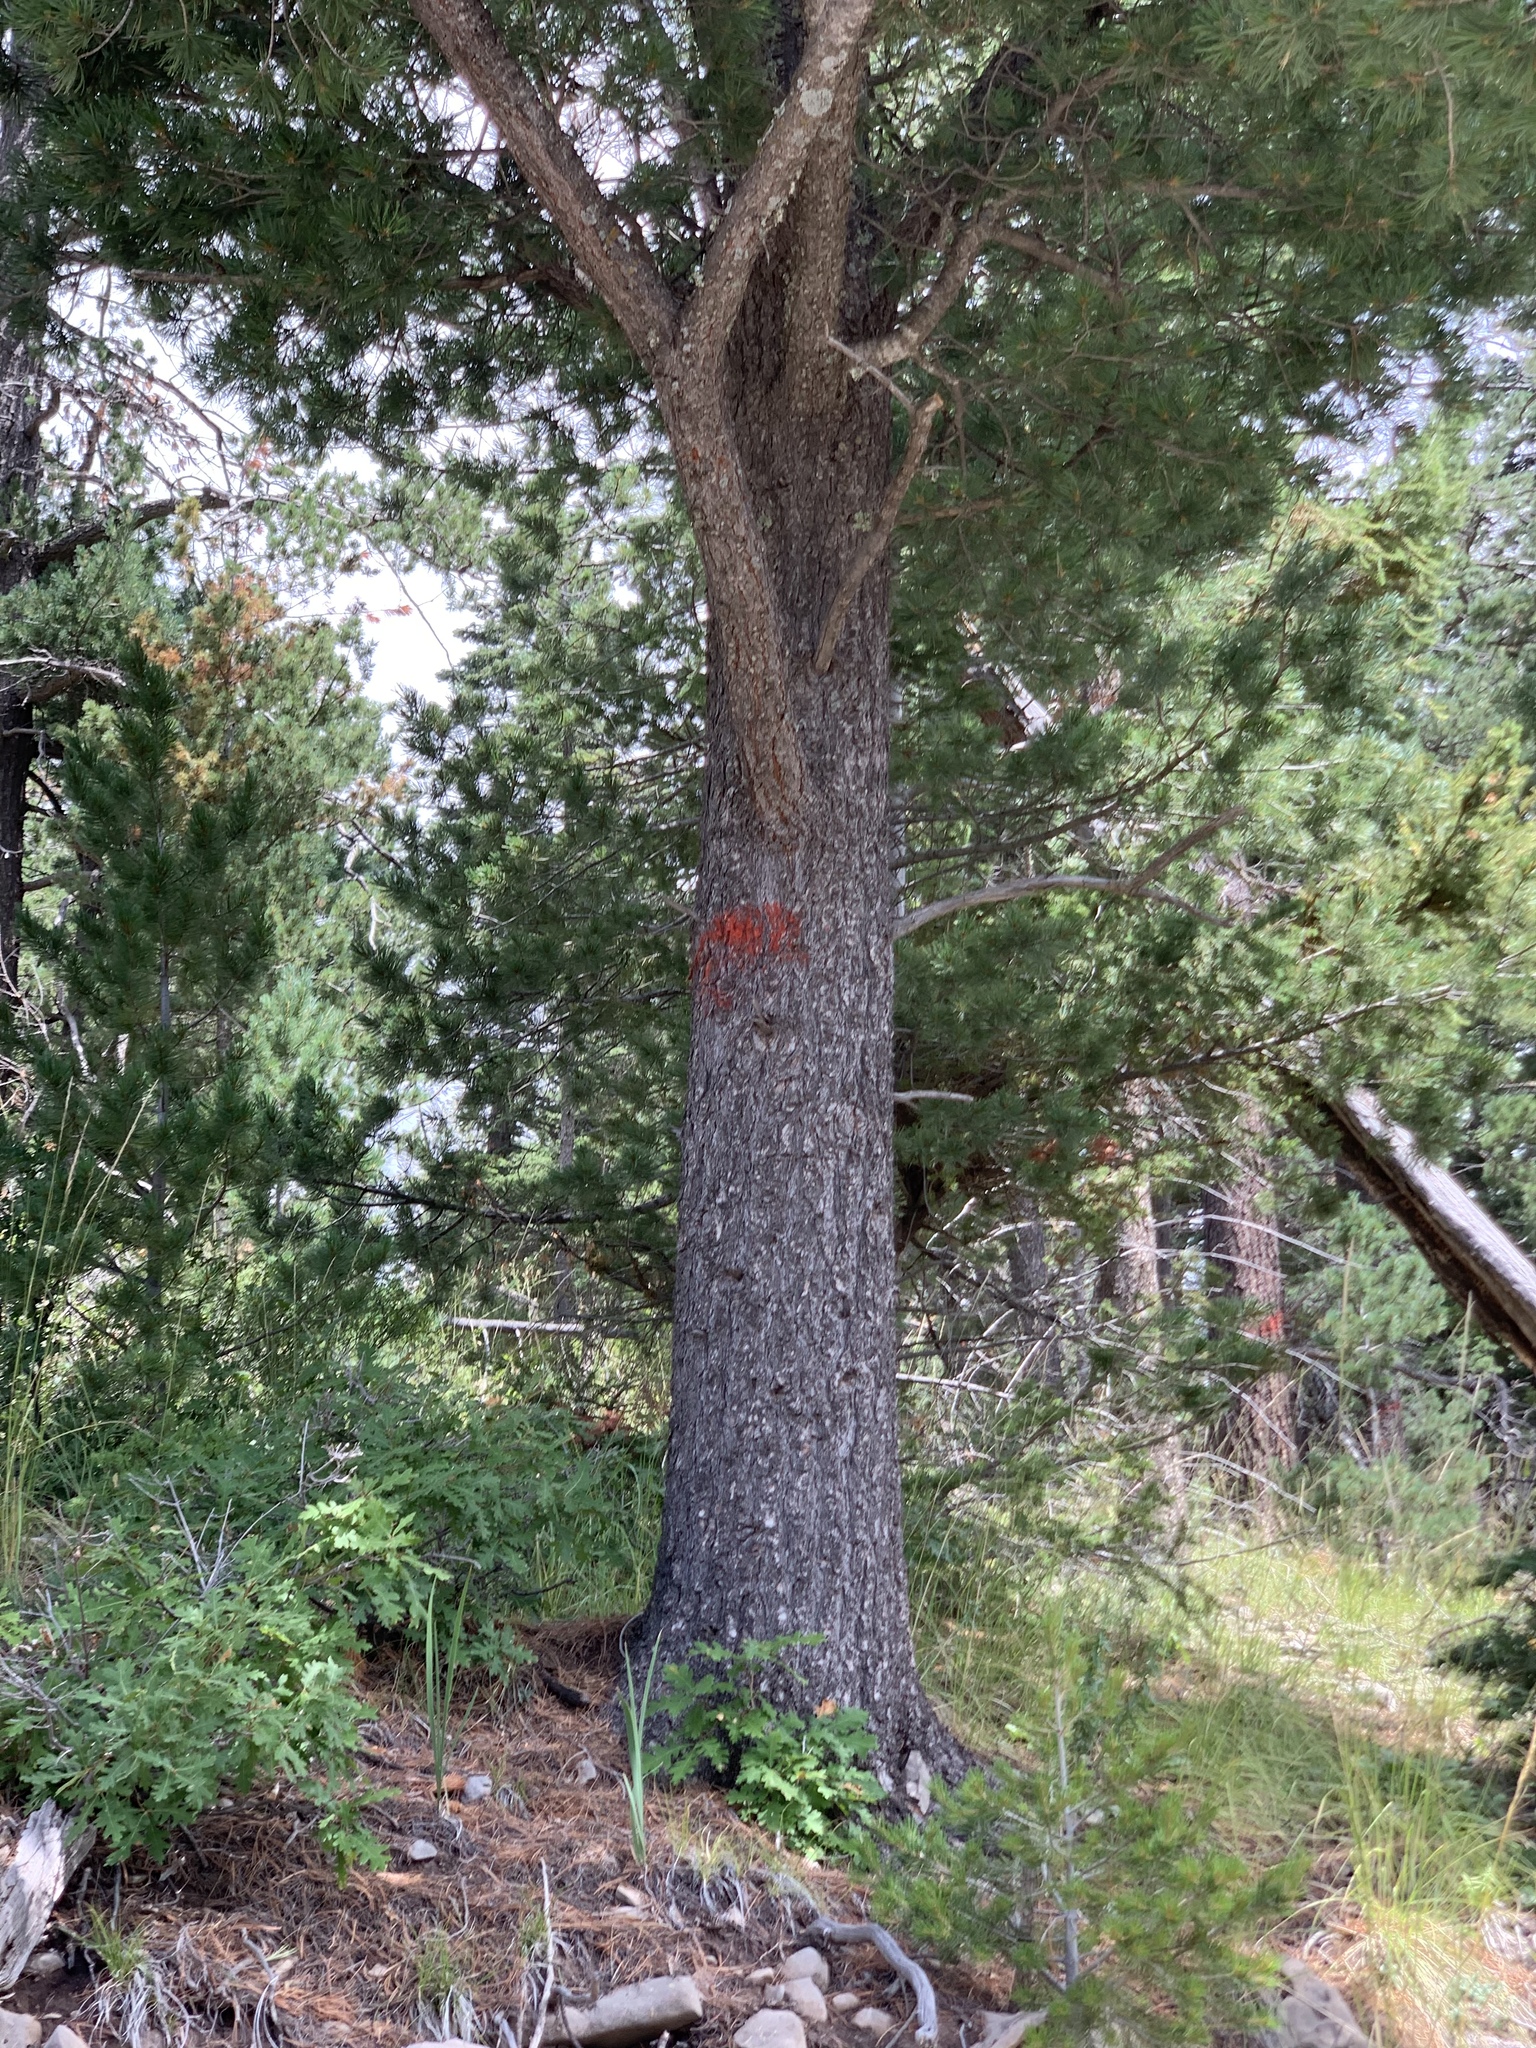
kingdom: Plantae
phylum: Tracheophyta
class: Pinopsida
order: Pinales
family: Pinaceae
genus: Pinus
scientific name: Pinus strobiformis
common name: Southwestern white pine
